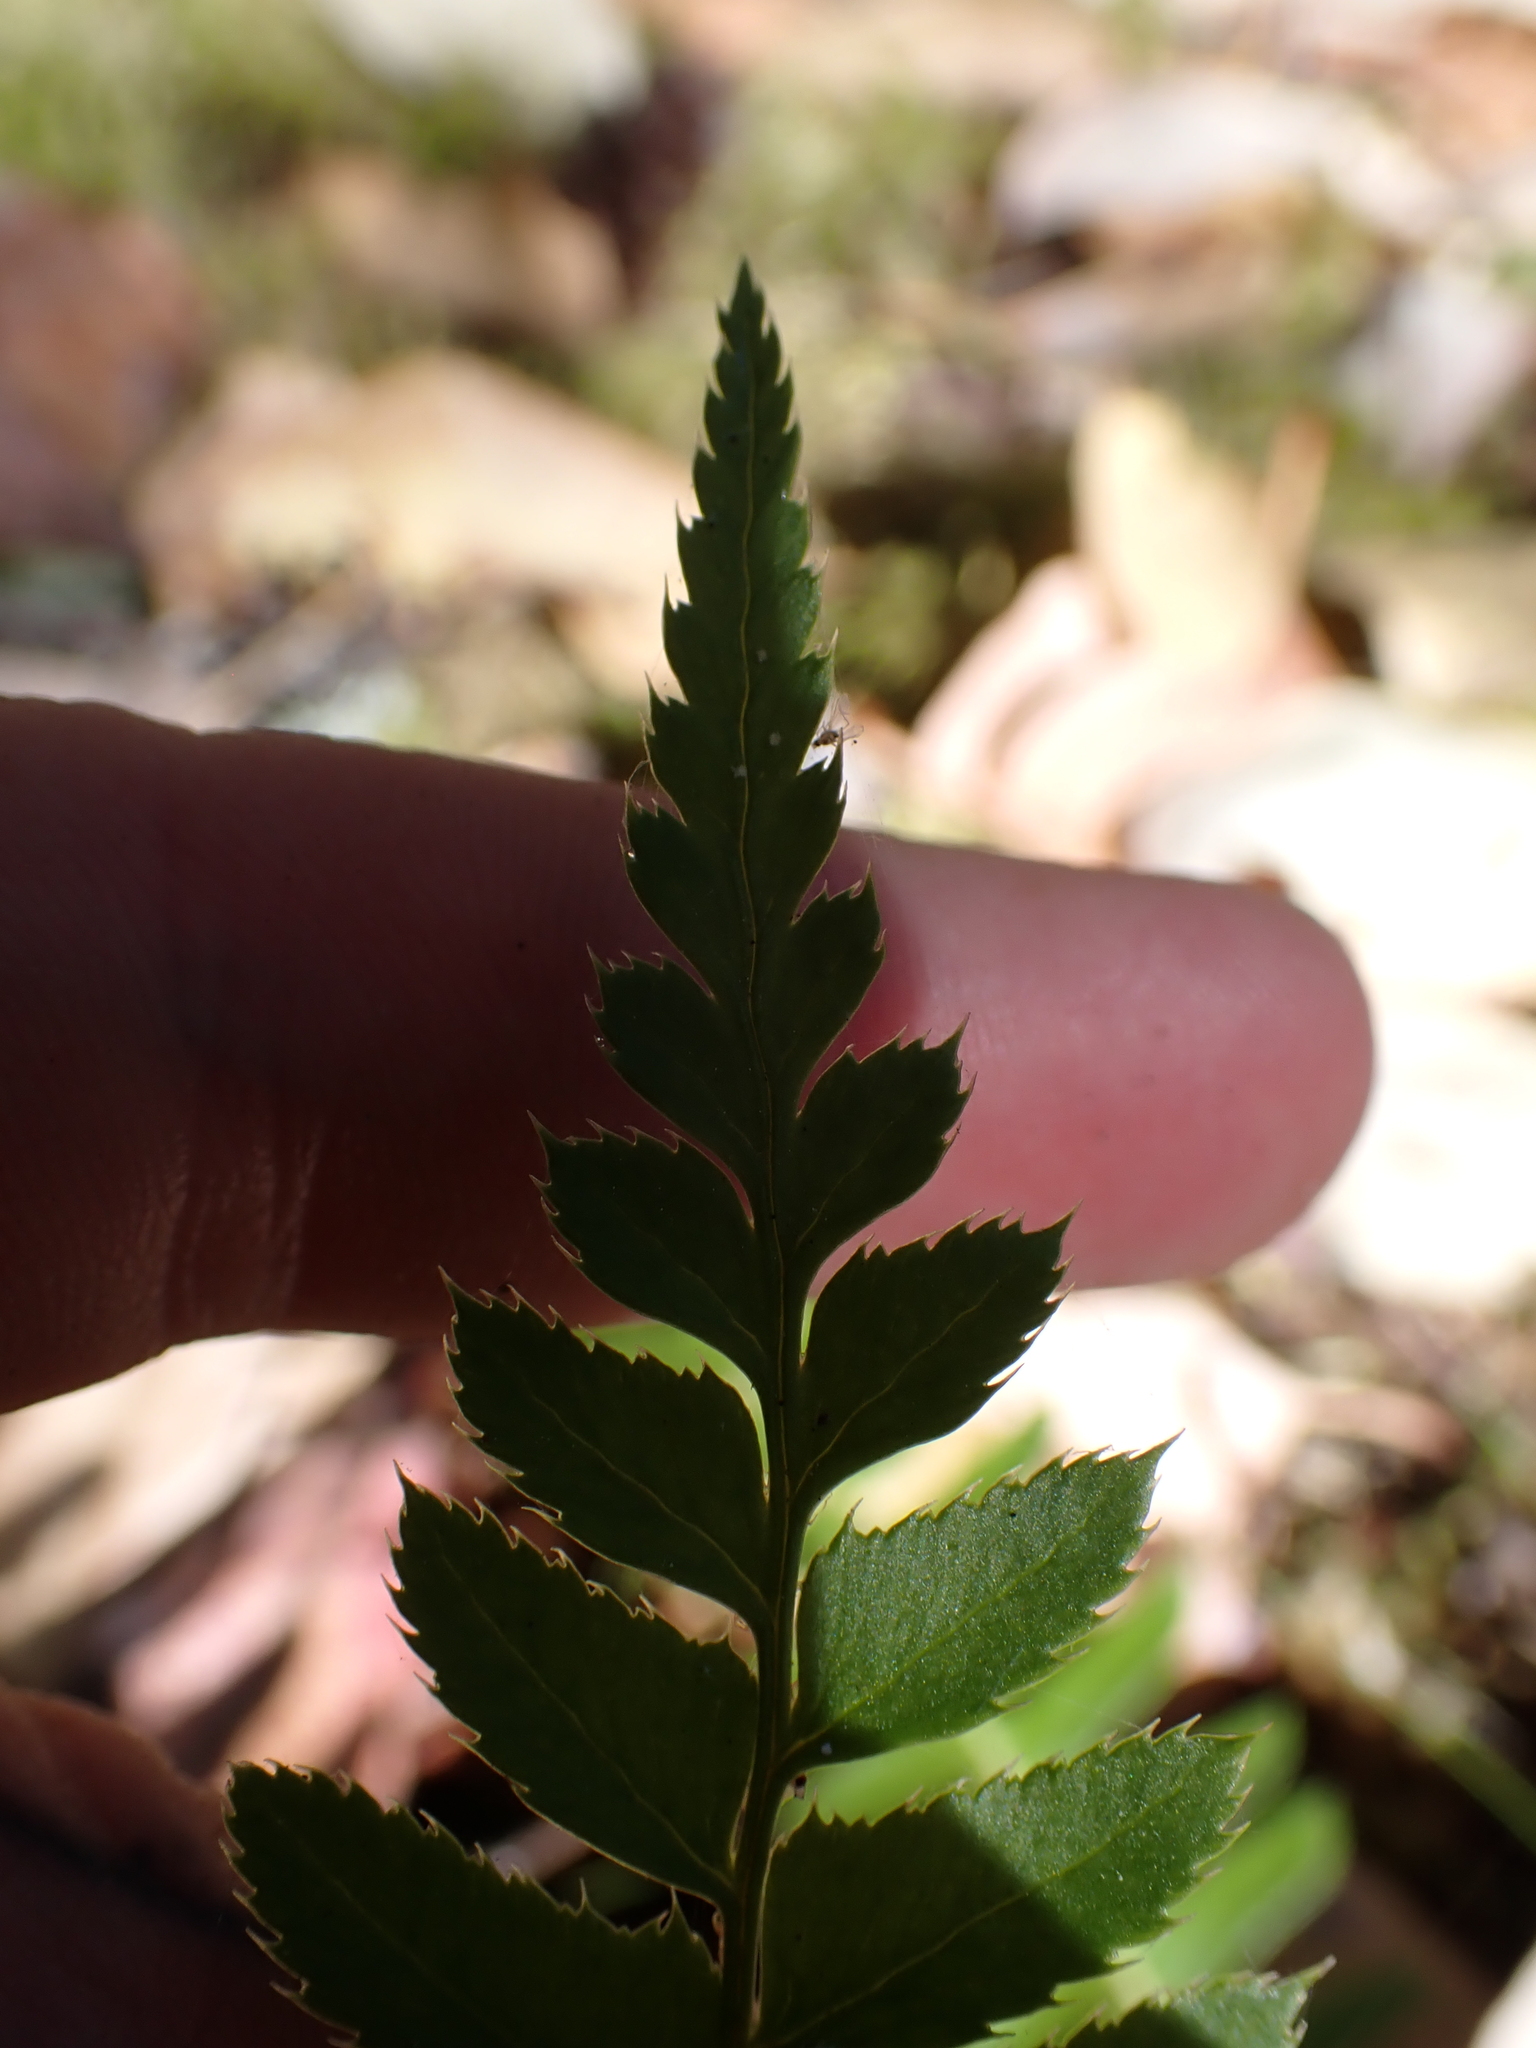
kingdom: Plantae
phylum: Tracheophyta
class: Polypodiopsida
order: Polypodiales
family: Dryopteridaceae
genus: Polystichum
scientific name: Polystichum munitum
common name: Western sword-fern
